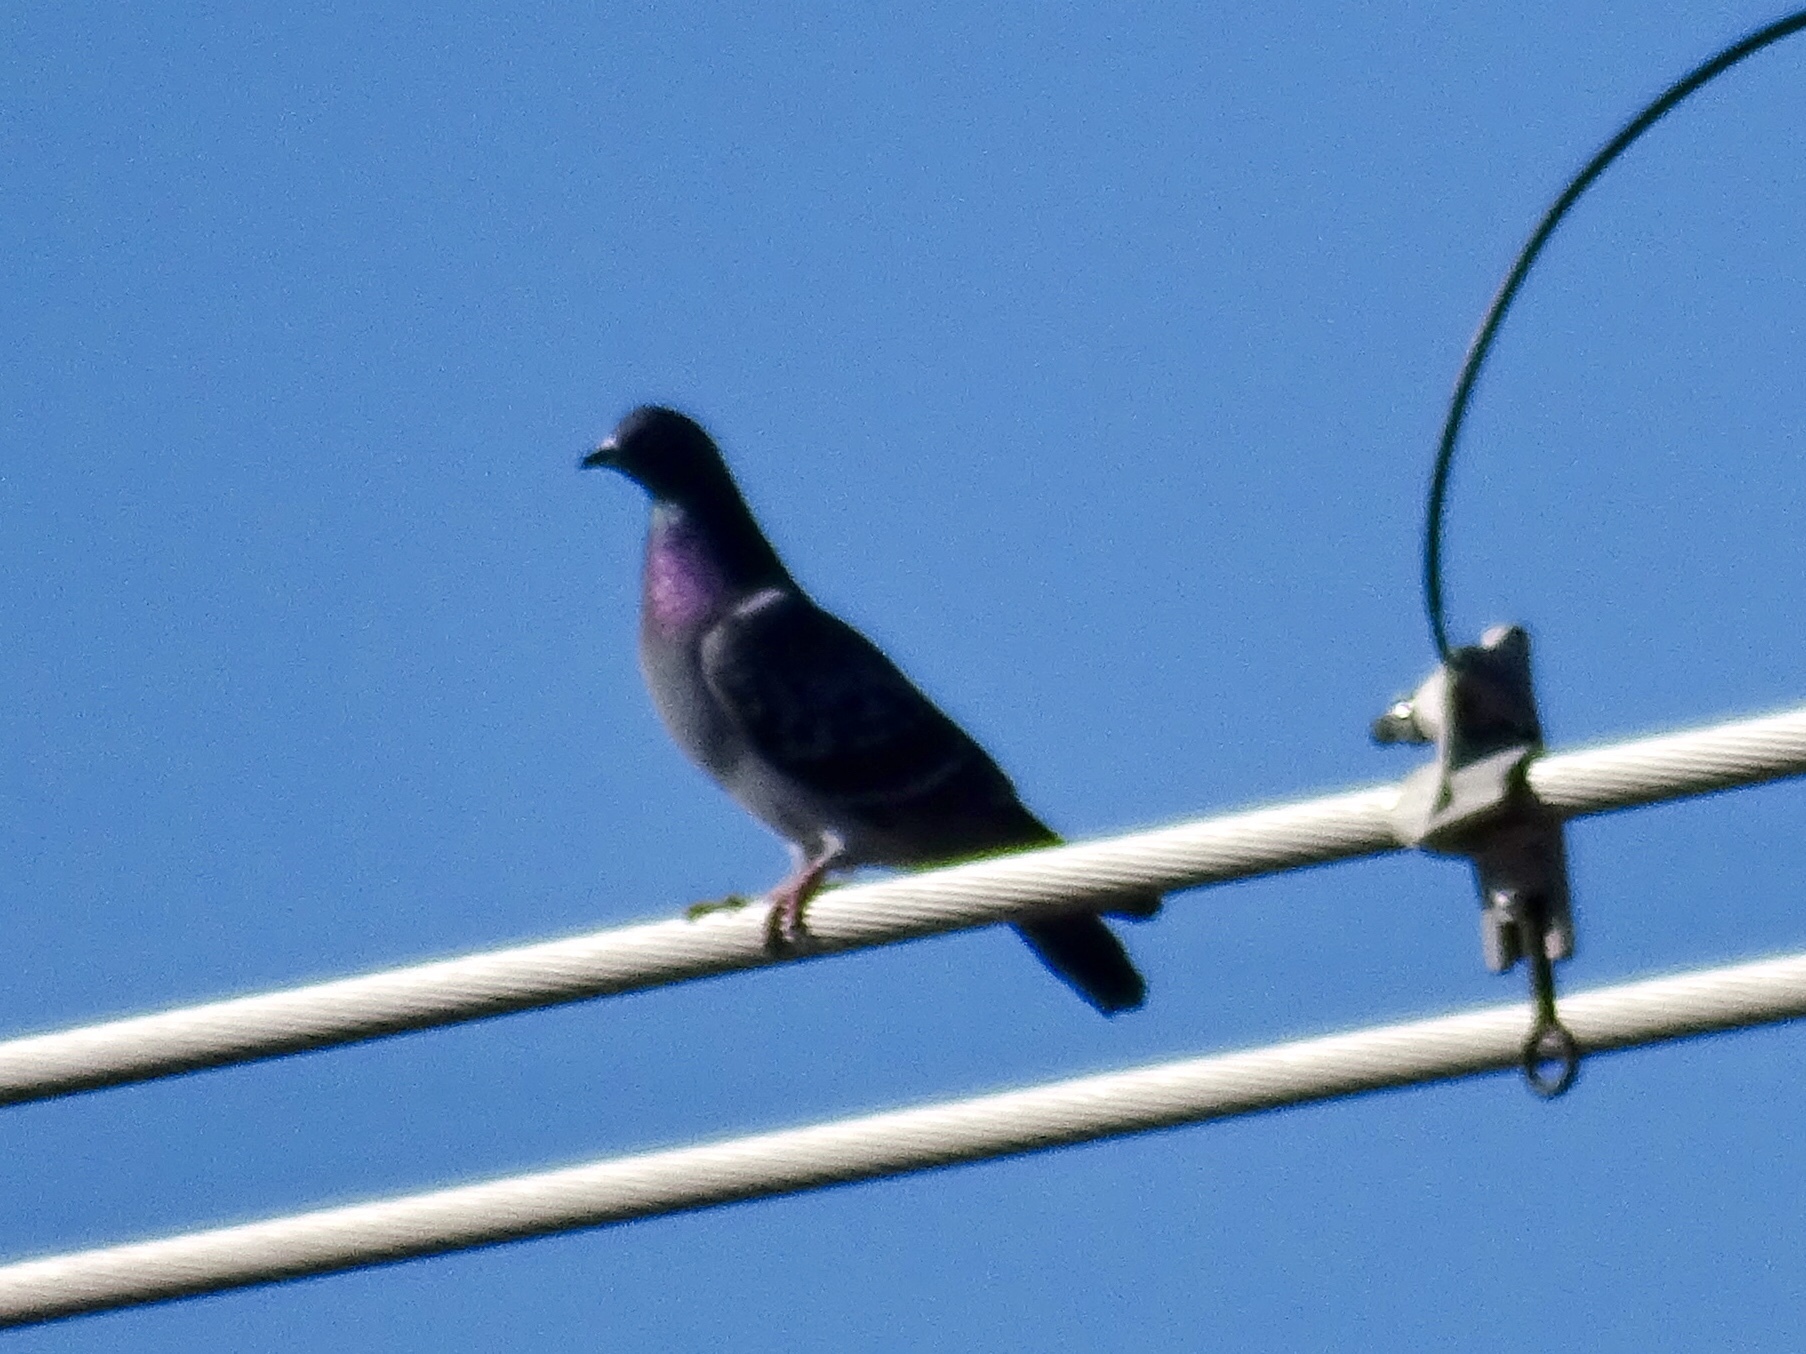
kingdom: Animalia
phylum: Chordata
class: Aves
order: Columbiformes
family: Columbidae
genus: Columba
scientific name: Columba livia
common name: Rock pigeon
